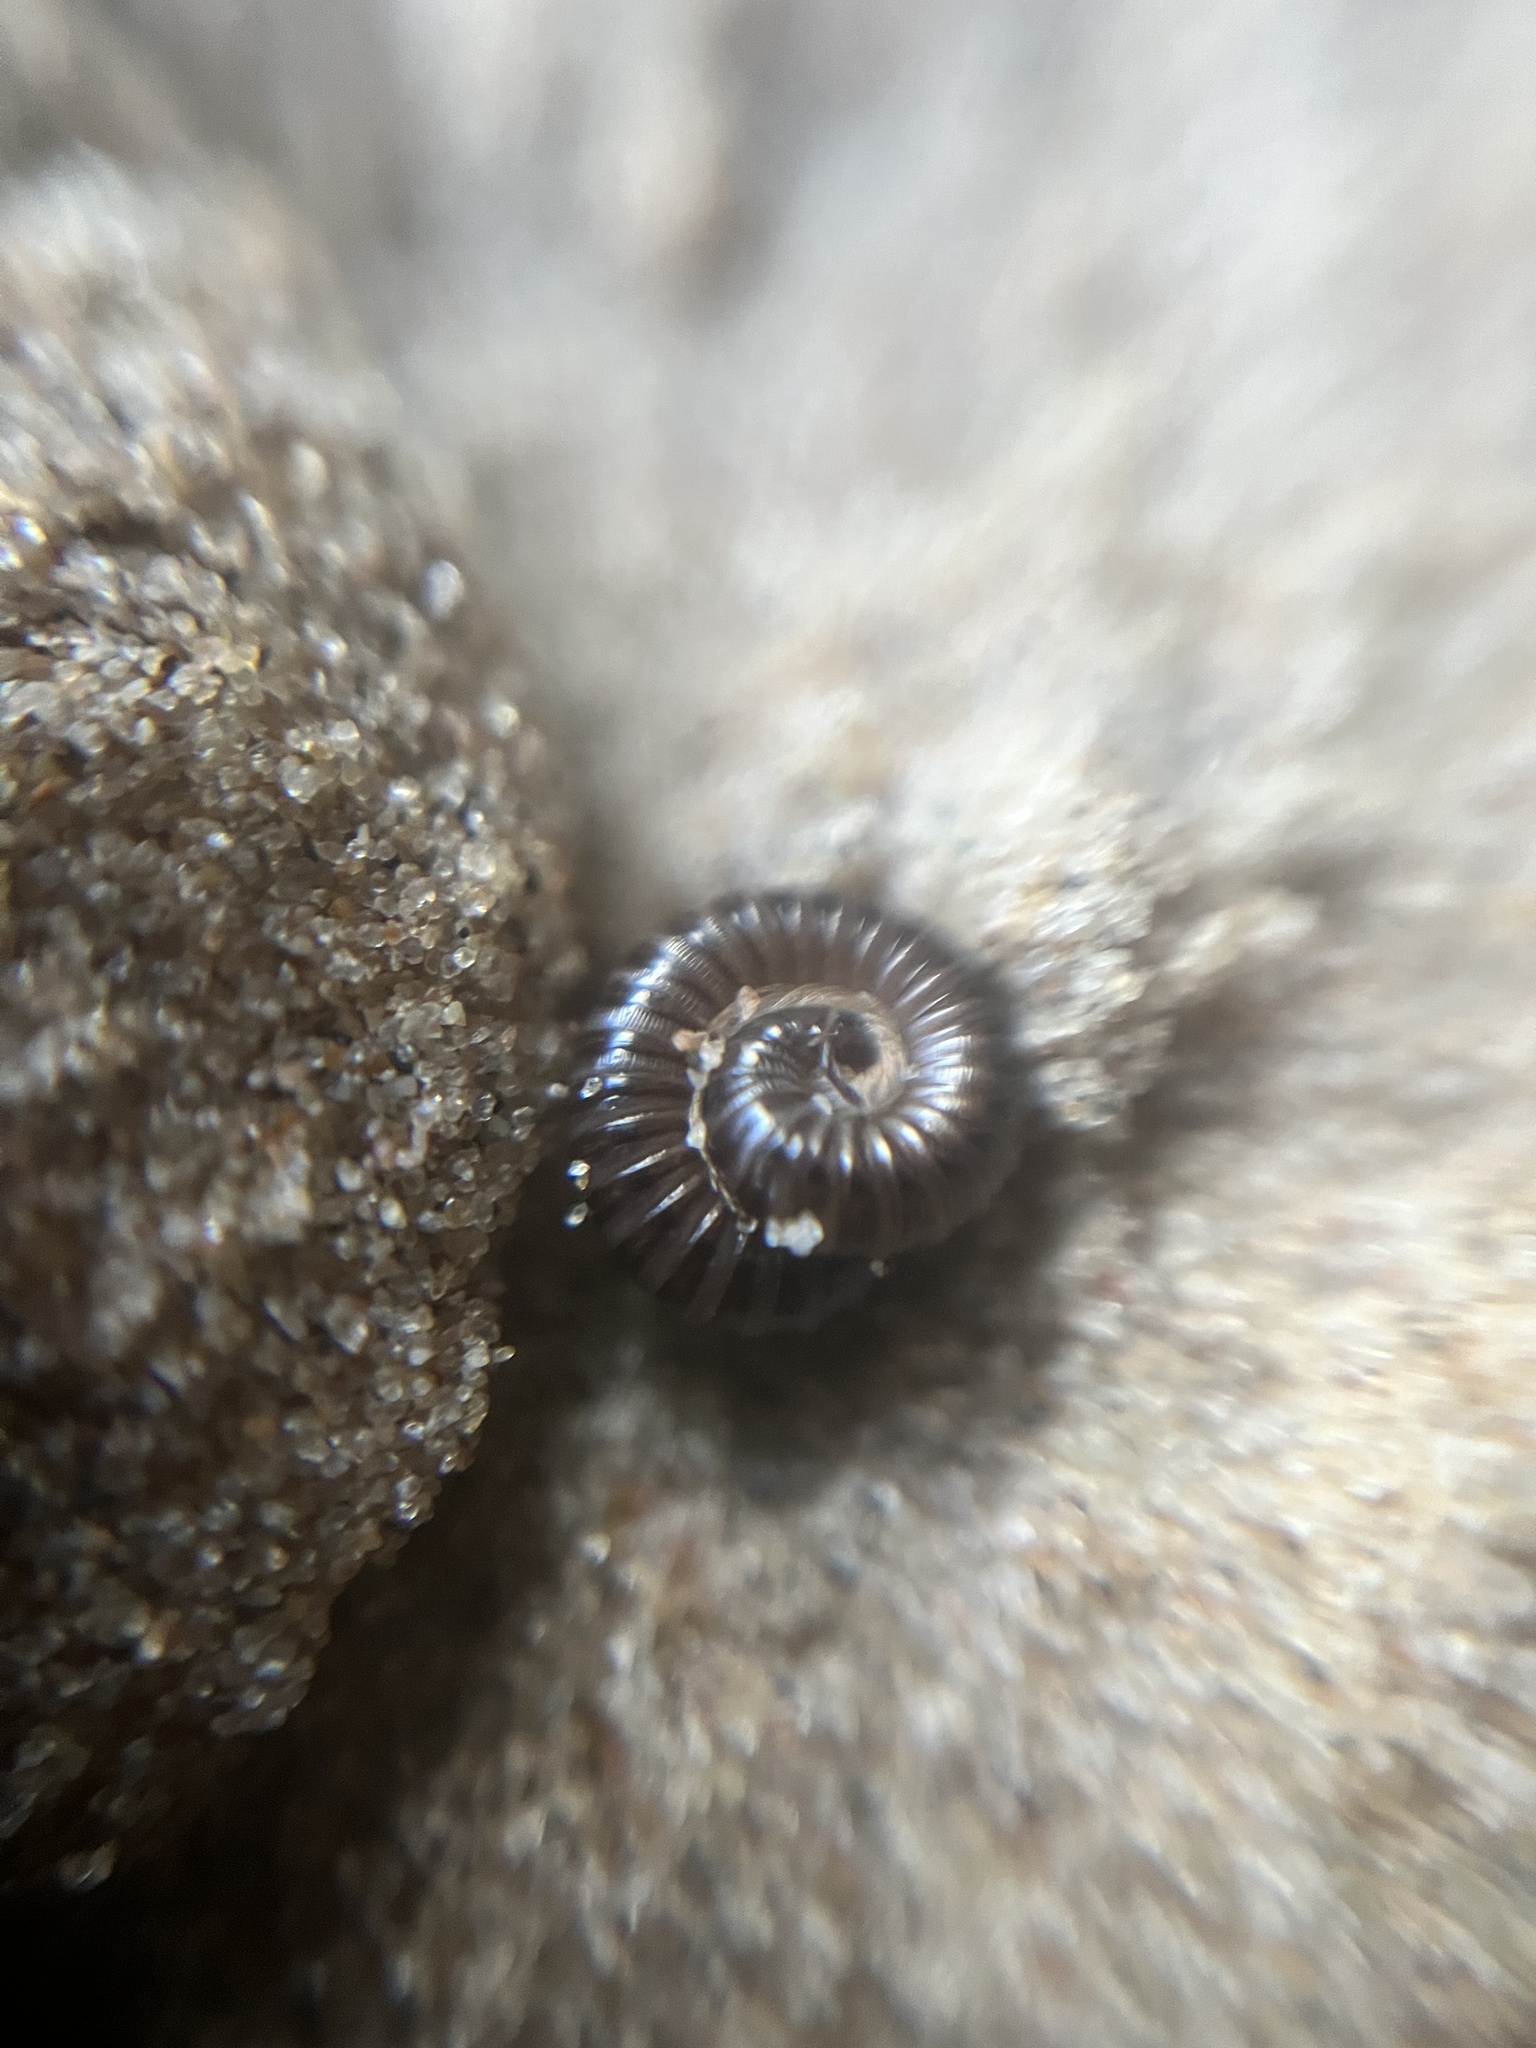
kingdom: Animalia
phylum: Arthropoda
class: Diplopoda
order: Julida
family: Julidae
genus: Tachypodoiulus
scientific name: Tachypodoiulus niger
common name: White-legged snake millipede
